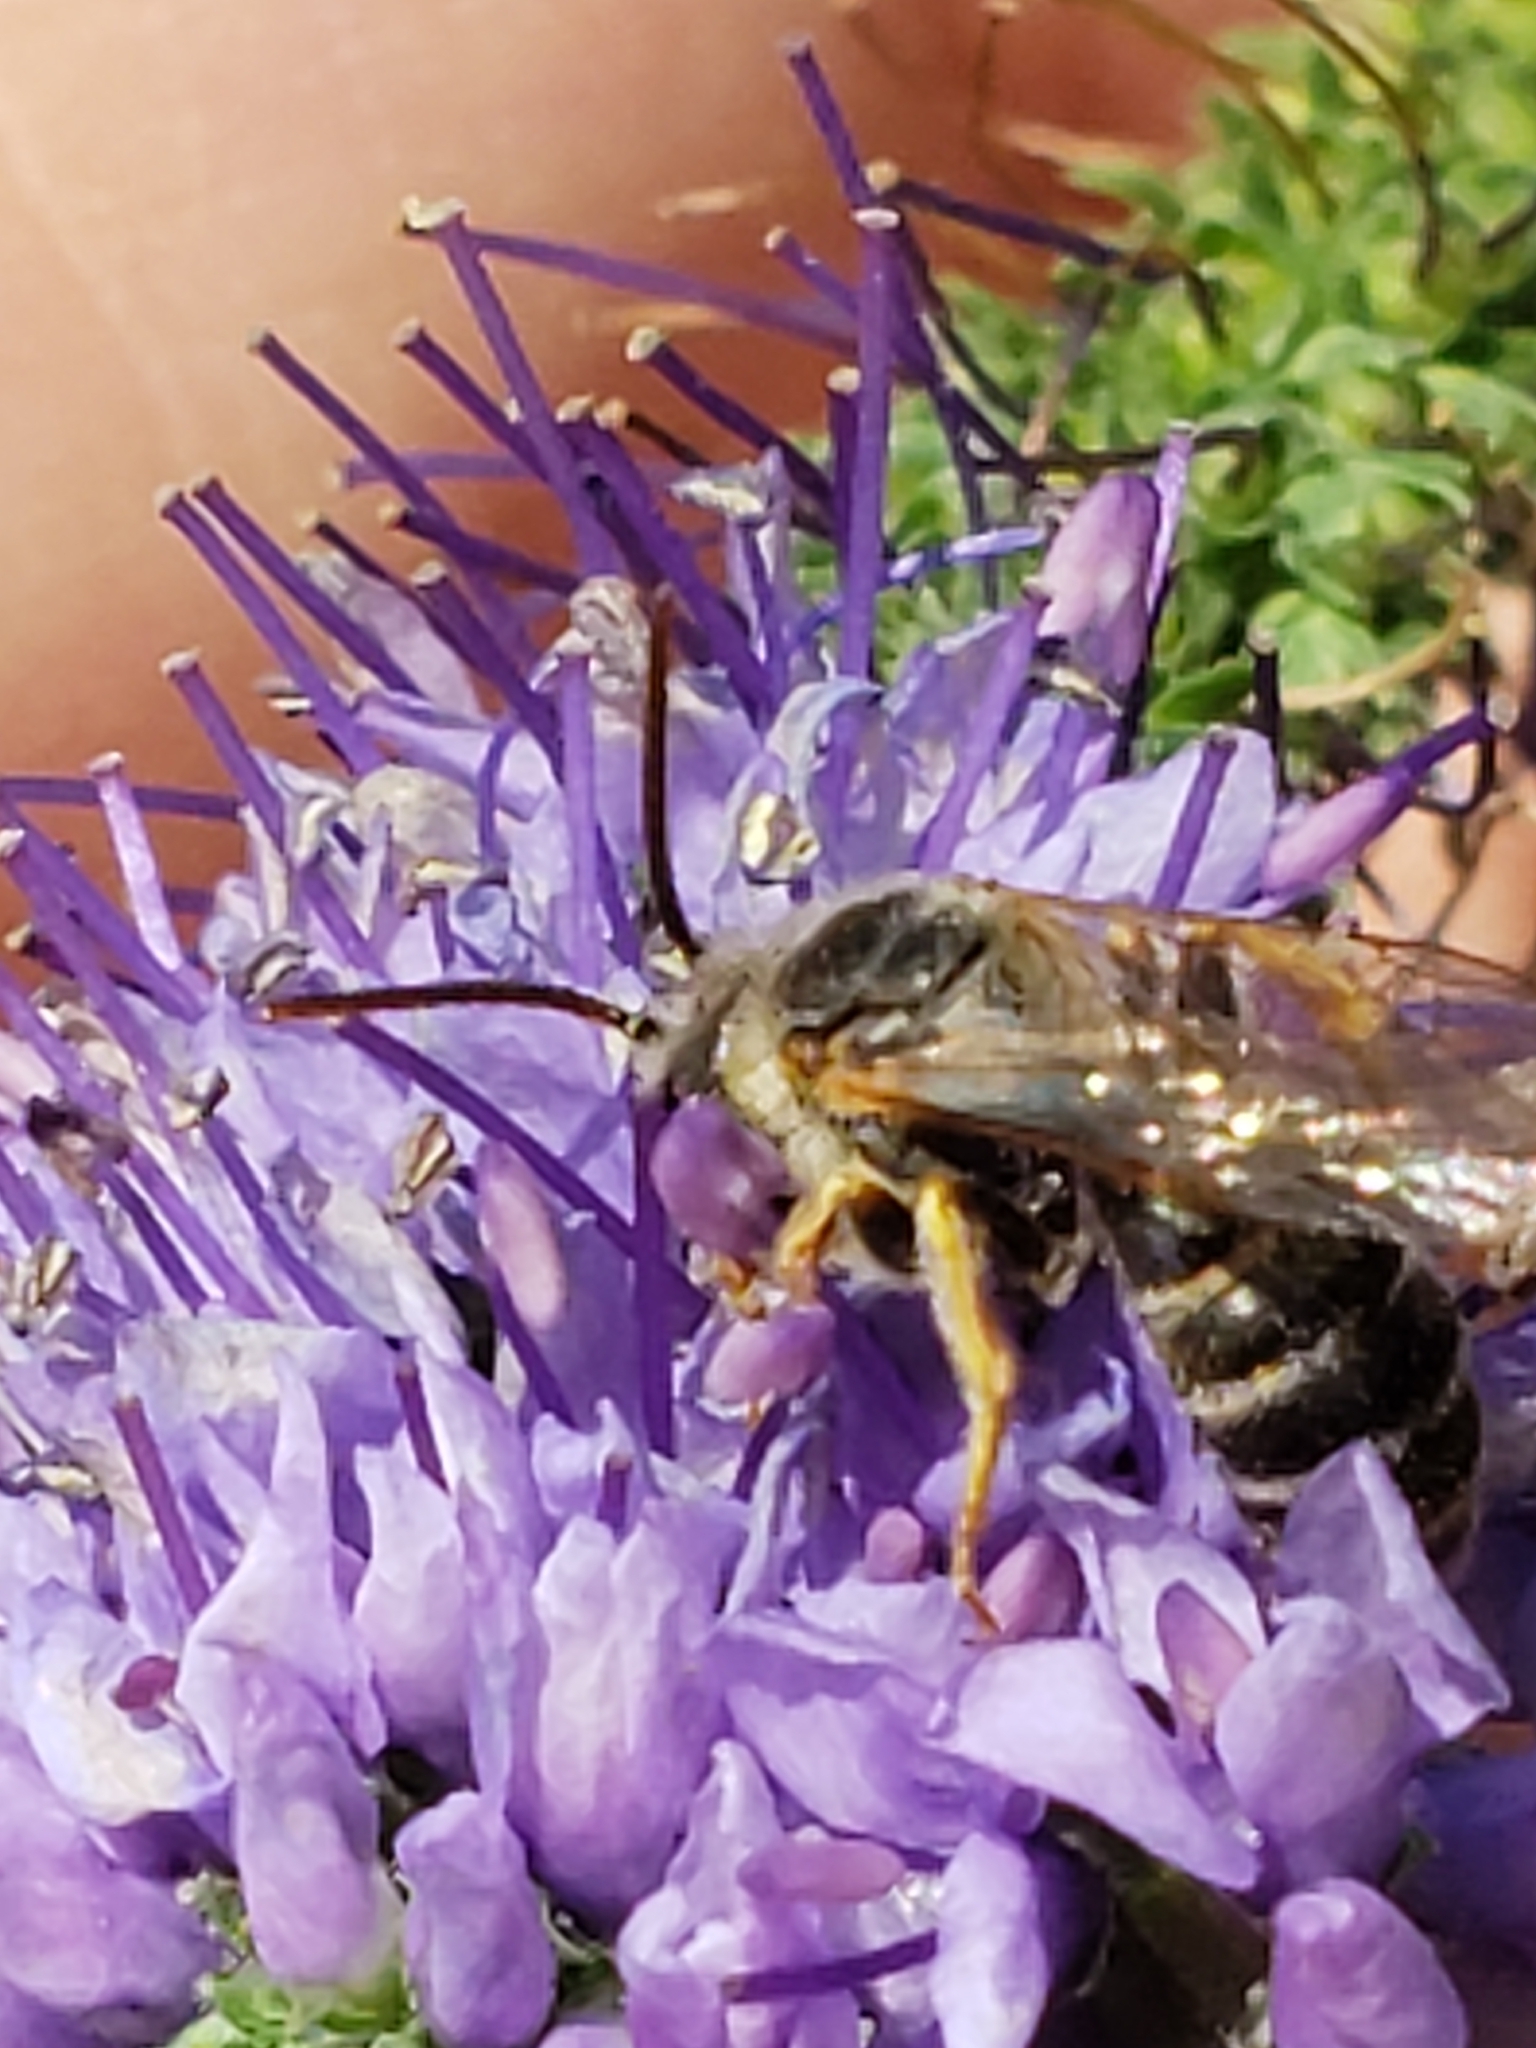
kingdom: Animalia
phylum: Arthropoda
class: Insecta
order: Hymenoptera
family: Halictidae
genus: Halictus
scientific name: Halictus ligatus
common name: Ligated furrow bee
